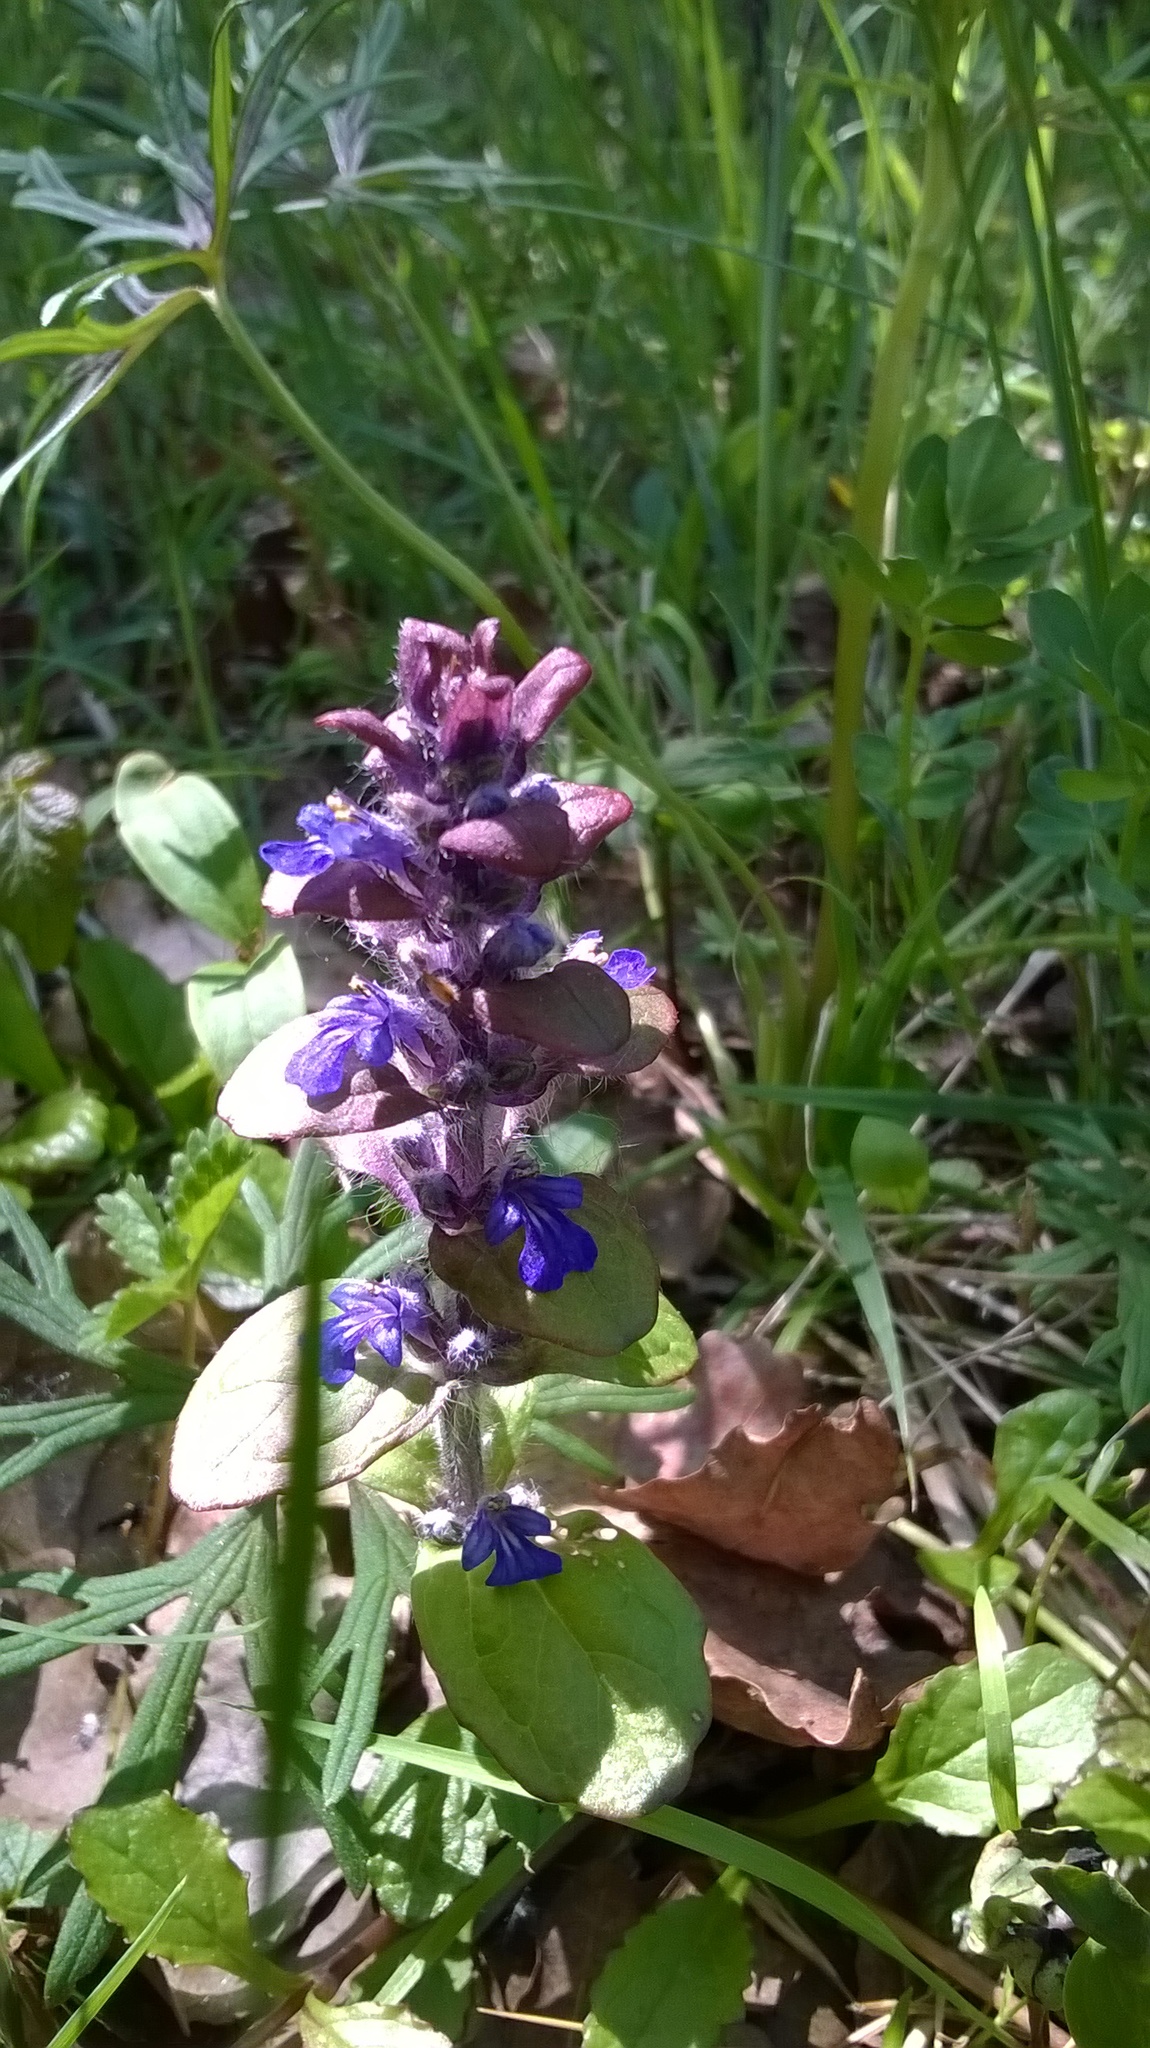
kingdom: Plantae
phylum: Tracheophyta
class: Magnoliopsida
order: Lamiales
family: Lamiaceae
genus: Ajuga
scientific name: Ajuga reptans
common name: Bugle
